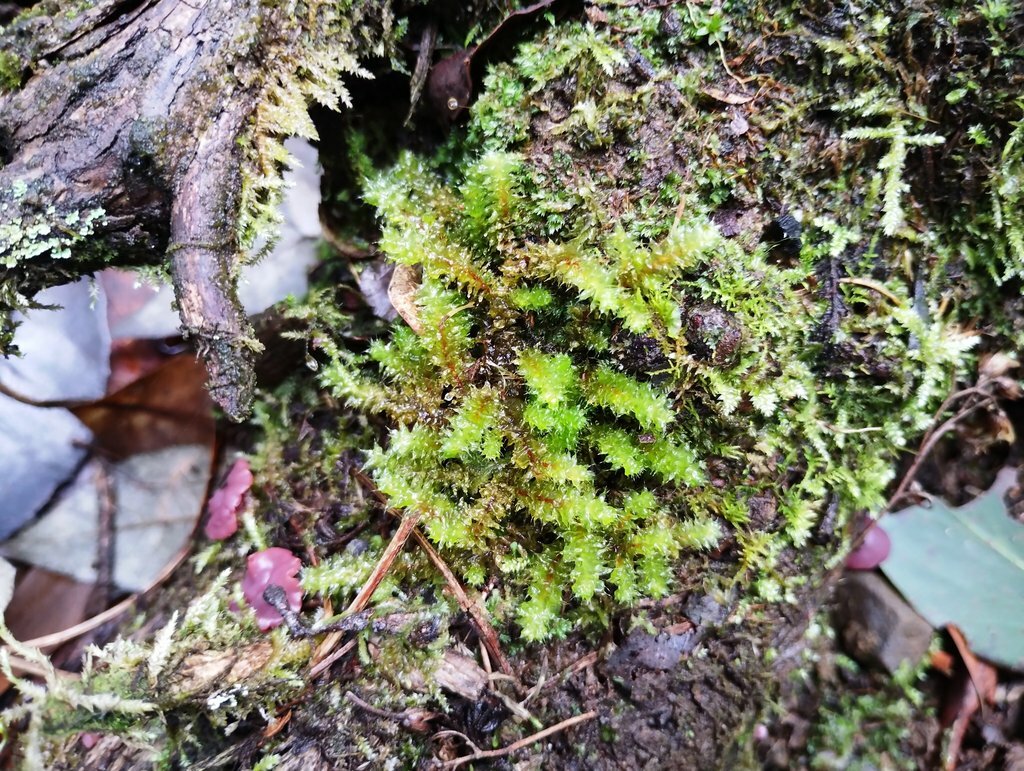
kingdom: Plantae
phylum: Bryophyta
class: Bryopsida
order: Ptychomniales
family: Ptychomniaceae
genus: Ptychomnion
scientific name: Ptychomnion aciculare
